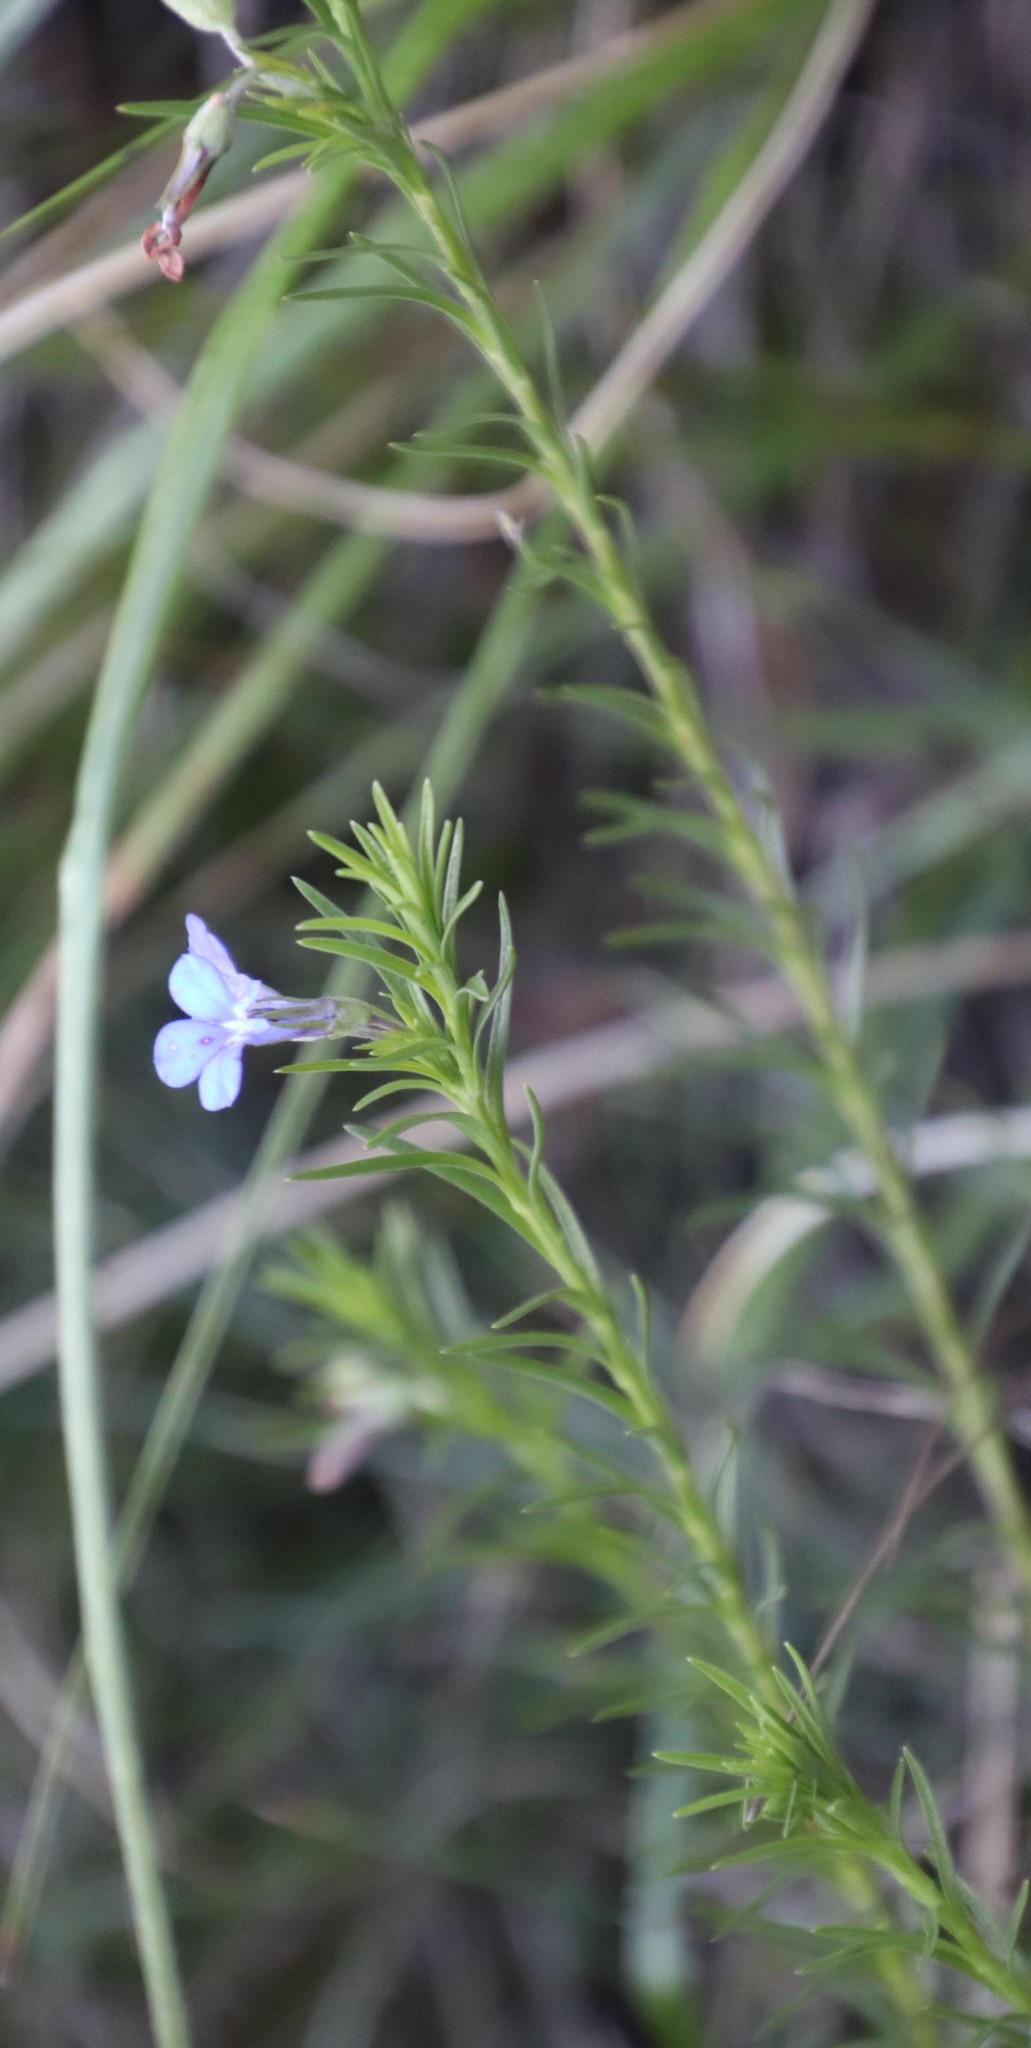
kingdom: Plantae
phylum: Tracheophyta
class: Magnoliopsida
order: Asterales
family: Campanulaceae
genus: Lobelia
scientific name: Lobelia pinifolia
